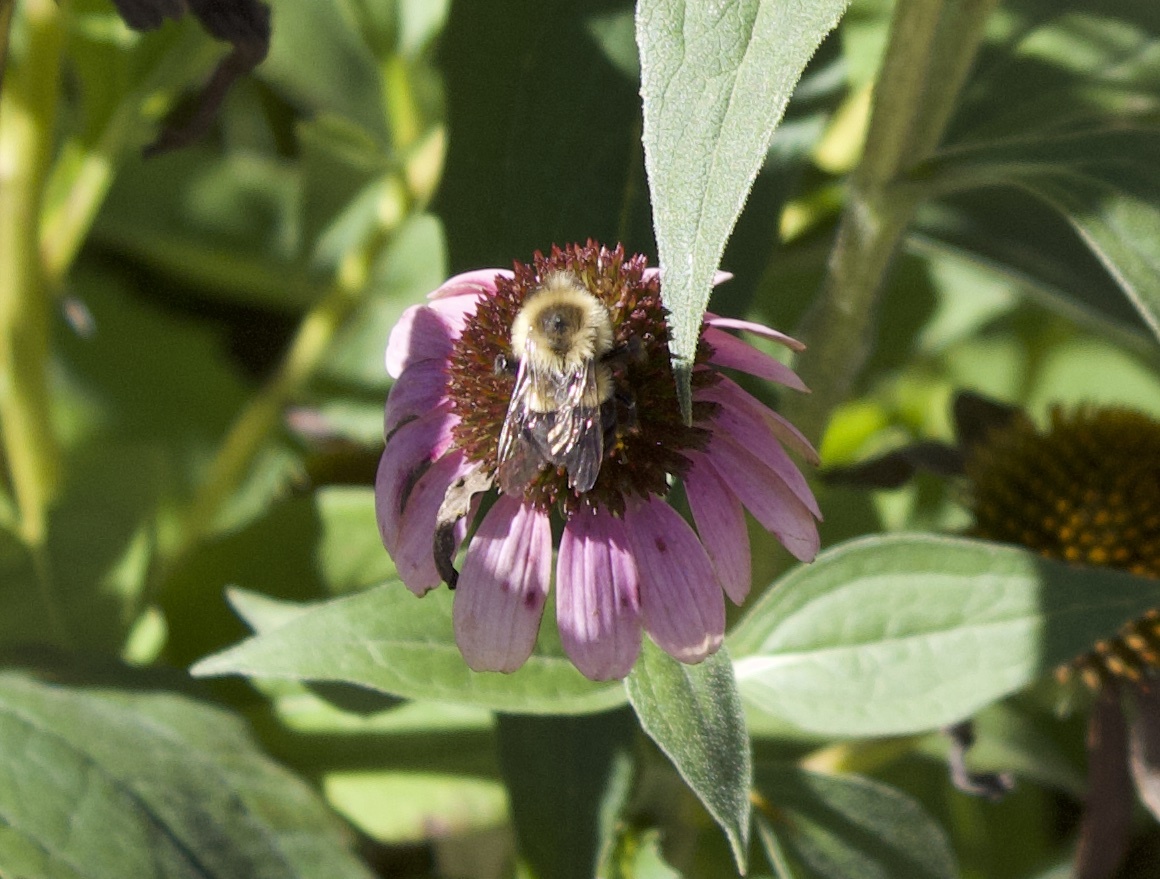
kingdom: Animalia
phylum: Arthropoda
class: Insecta
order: Hymenoptera
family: Apidae
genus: Bombus
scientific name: Bombus impatiens
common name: Common eastern bumble bee
